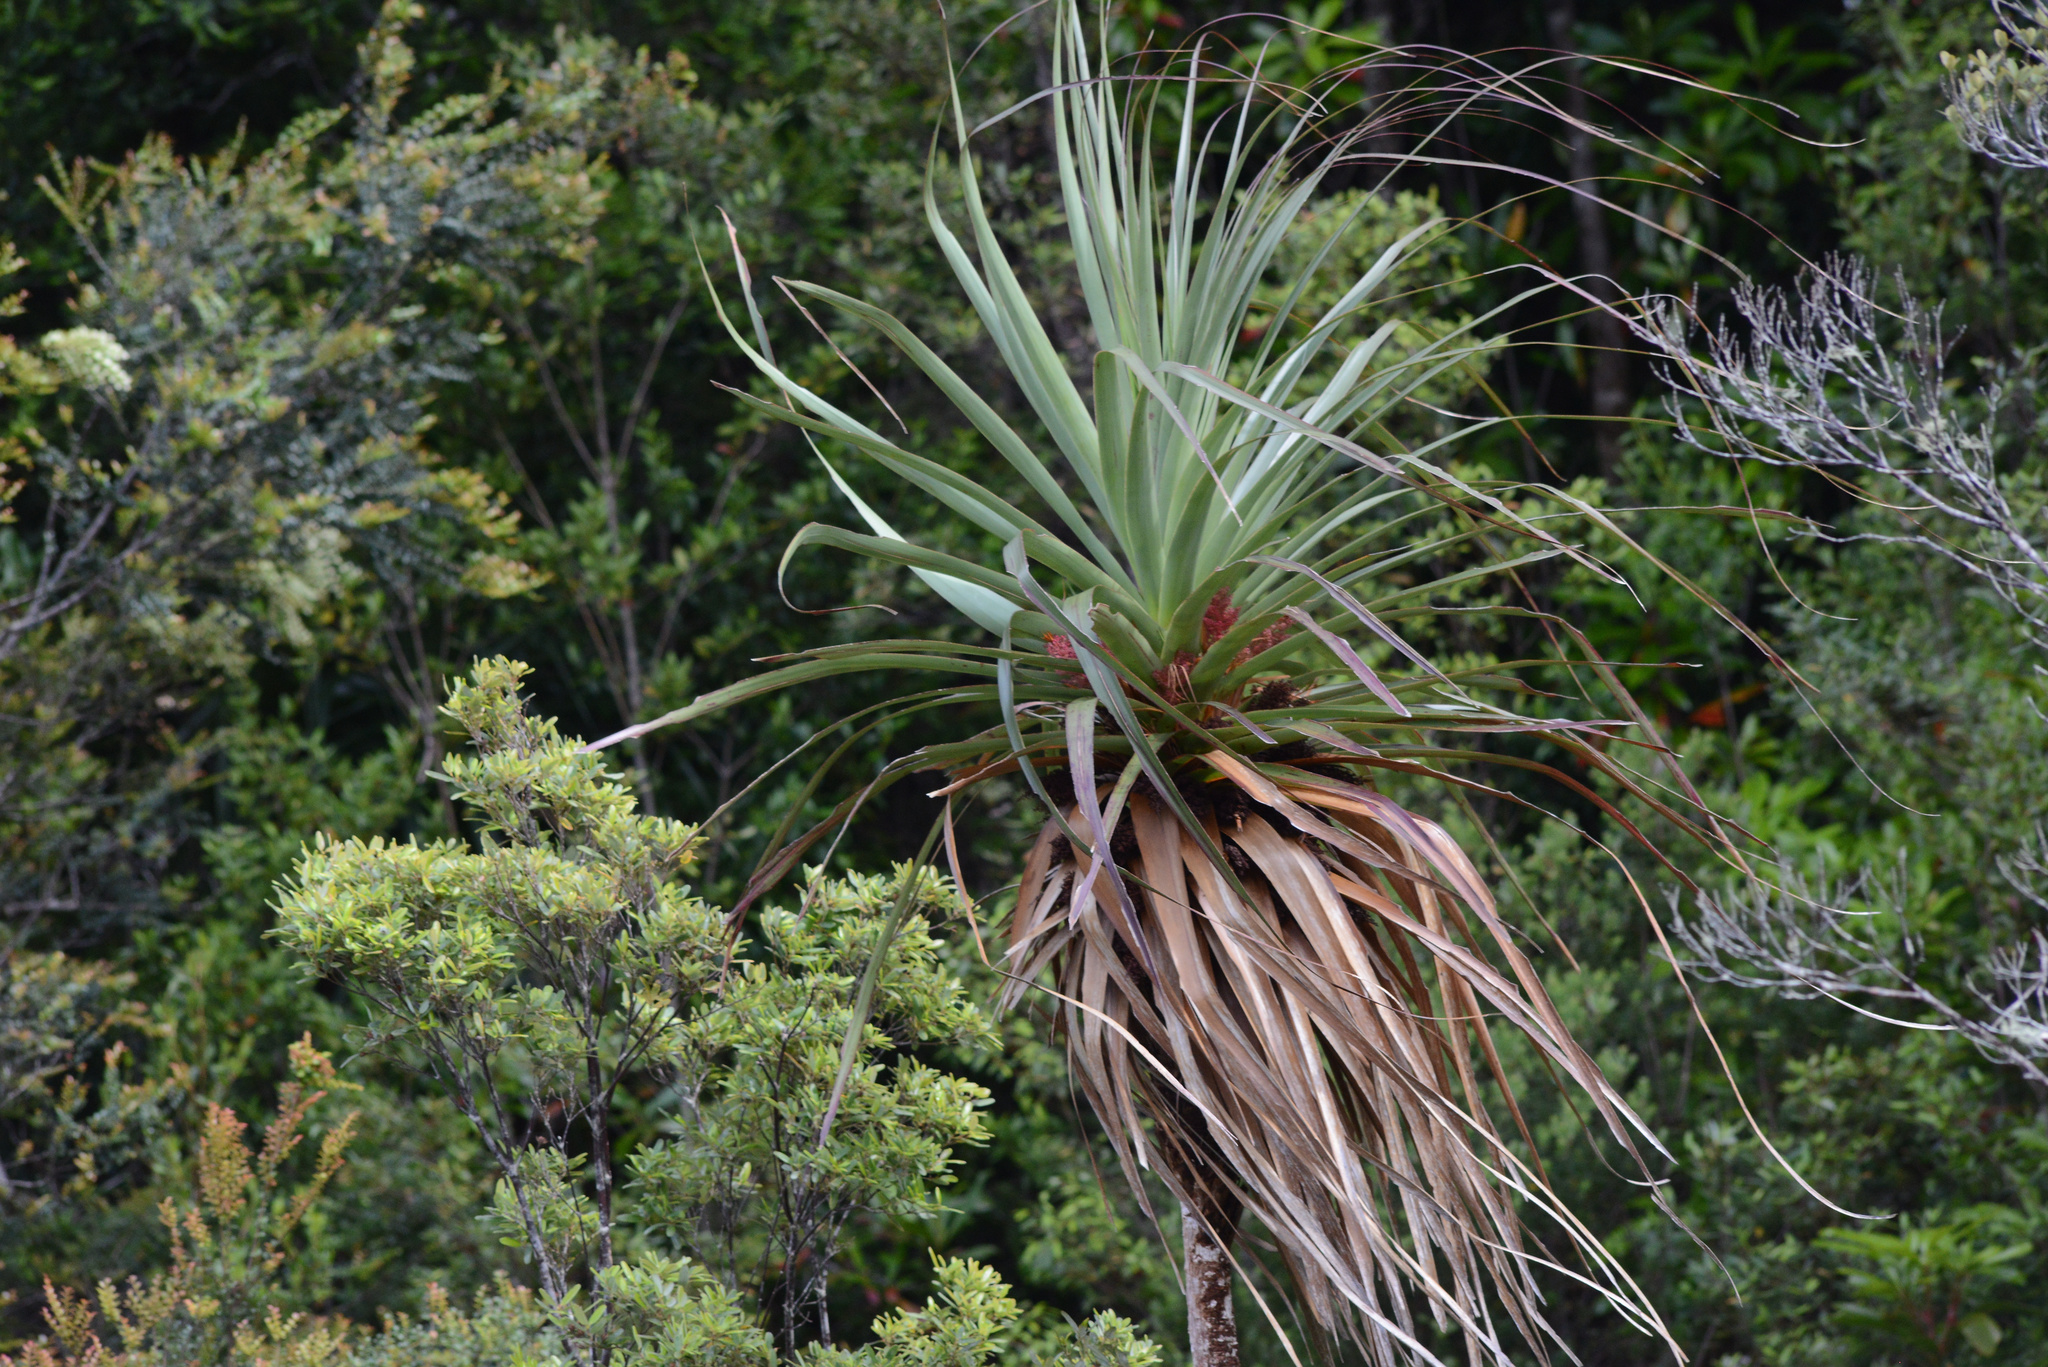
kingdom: Plantae
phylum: Tracheophyta
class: Magnoliopsida
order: Ericales
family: Ericaceae
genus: Dracophyllum
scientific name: Dracophyllum pandanifolium
